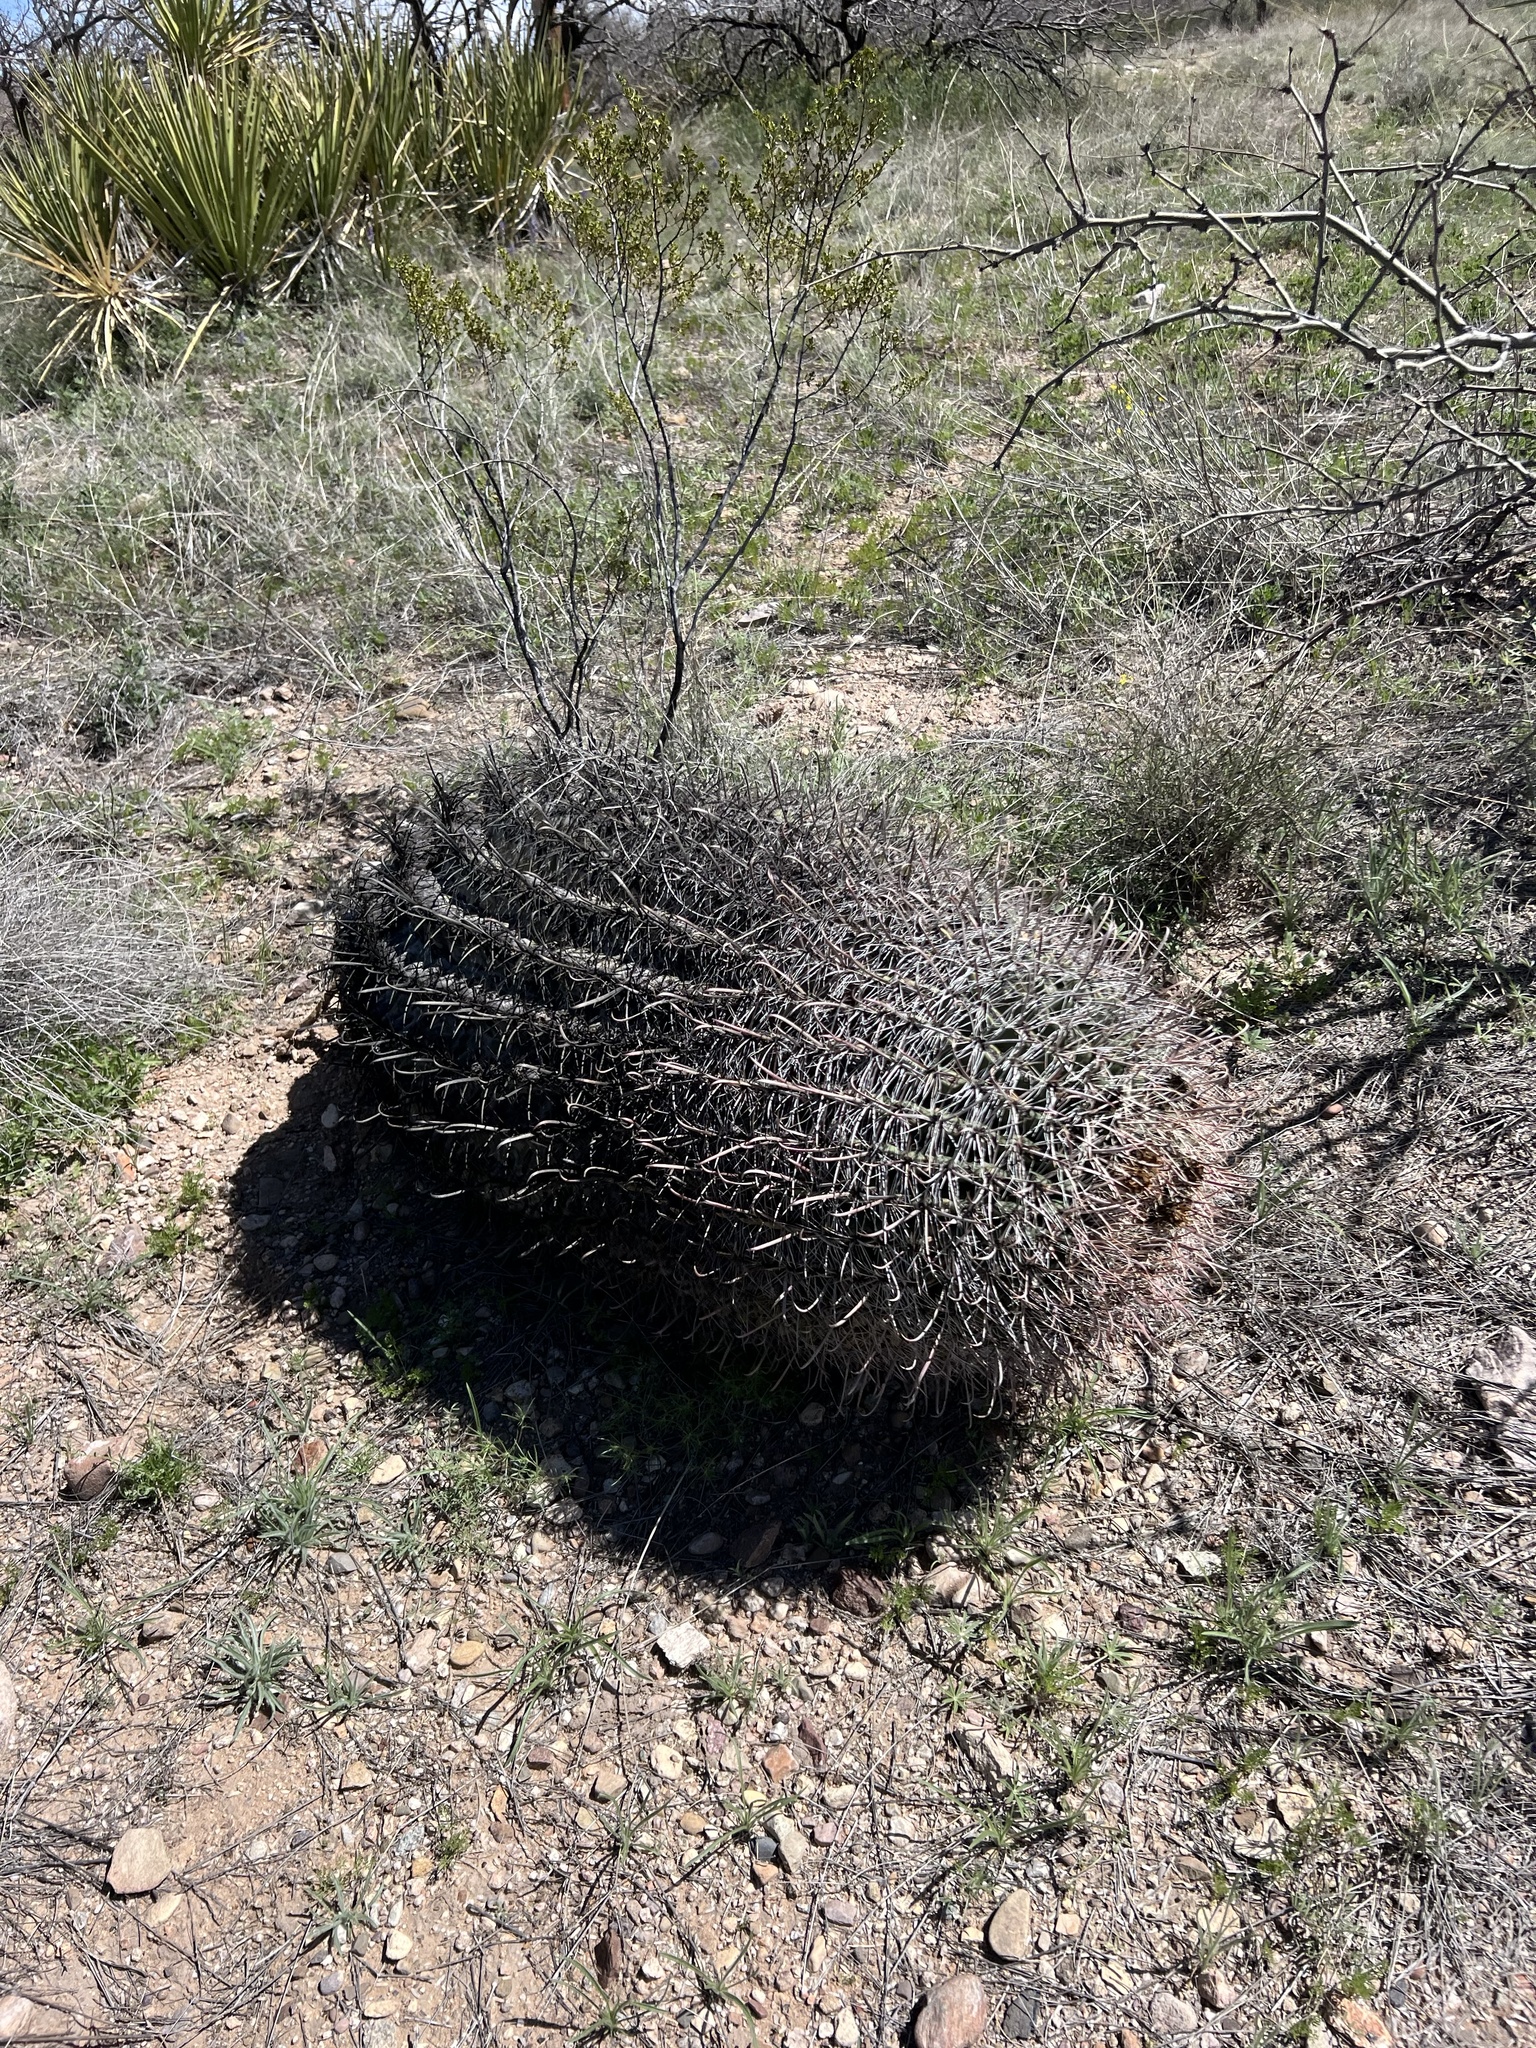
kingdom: Plantae
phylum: Tracheophyta
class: Magnoliopsida
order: Caryophyllales
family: Cactaceae
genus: Ferocactus
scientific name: Ferocactus wislizeni
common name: Candy barrel cactus
